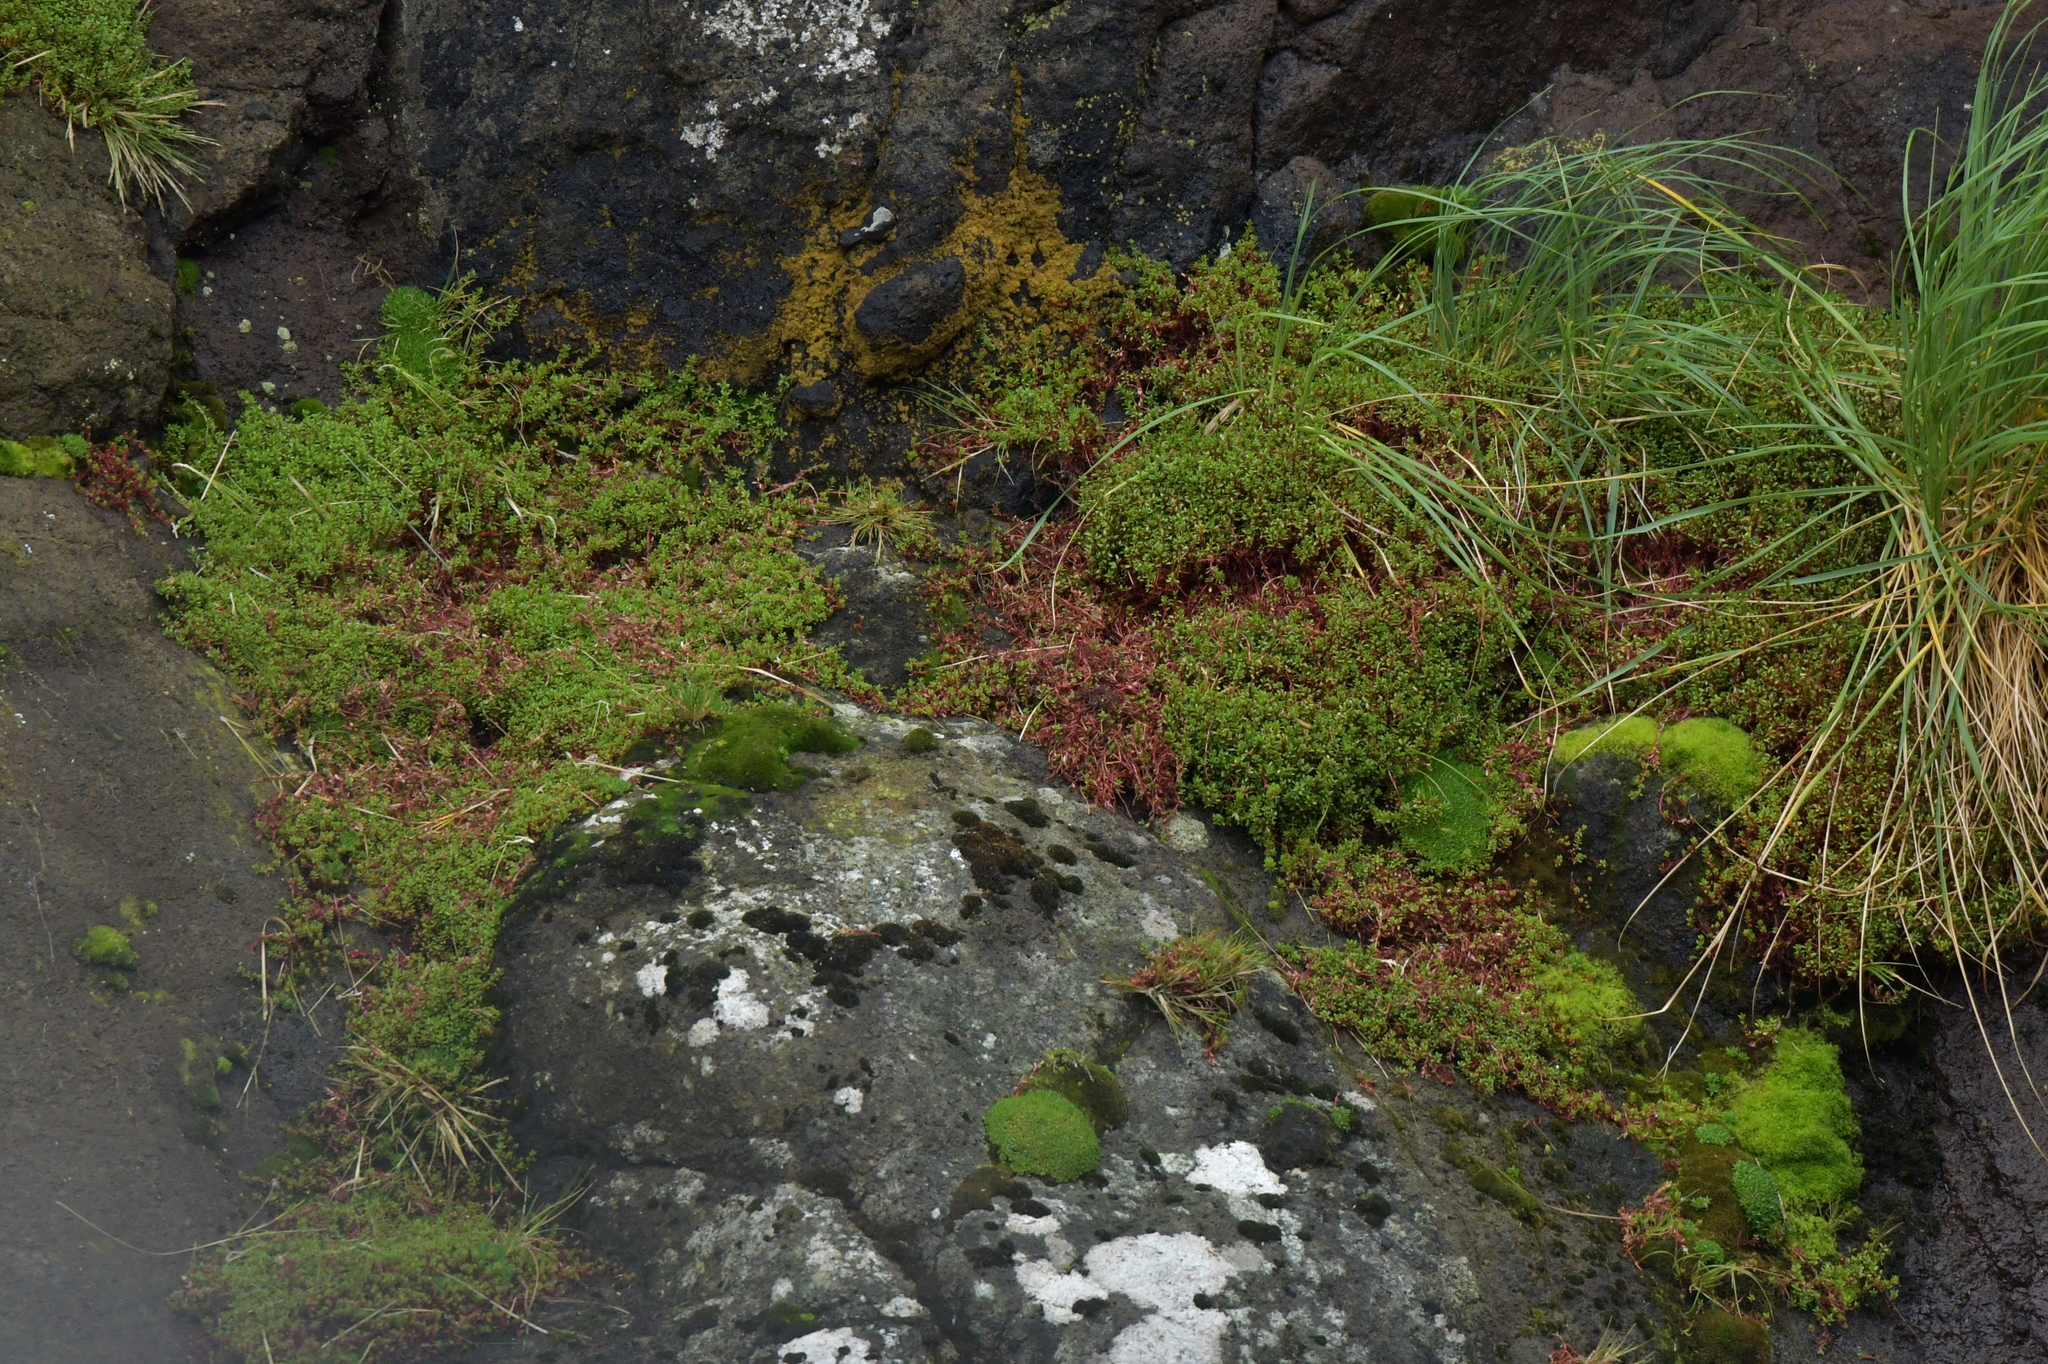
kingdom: Plantae
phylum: Tracheophyta
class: Magnoliopsida
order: Saxifragales
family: Crassulaceae
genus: Crassula
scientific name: Crassula moschata
